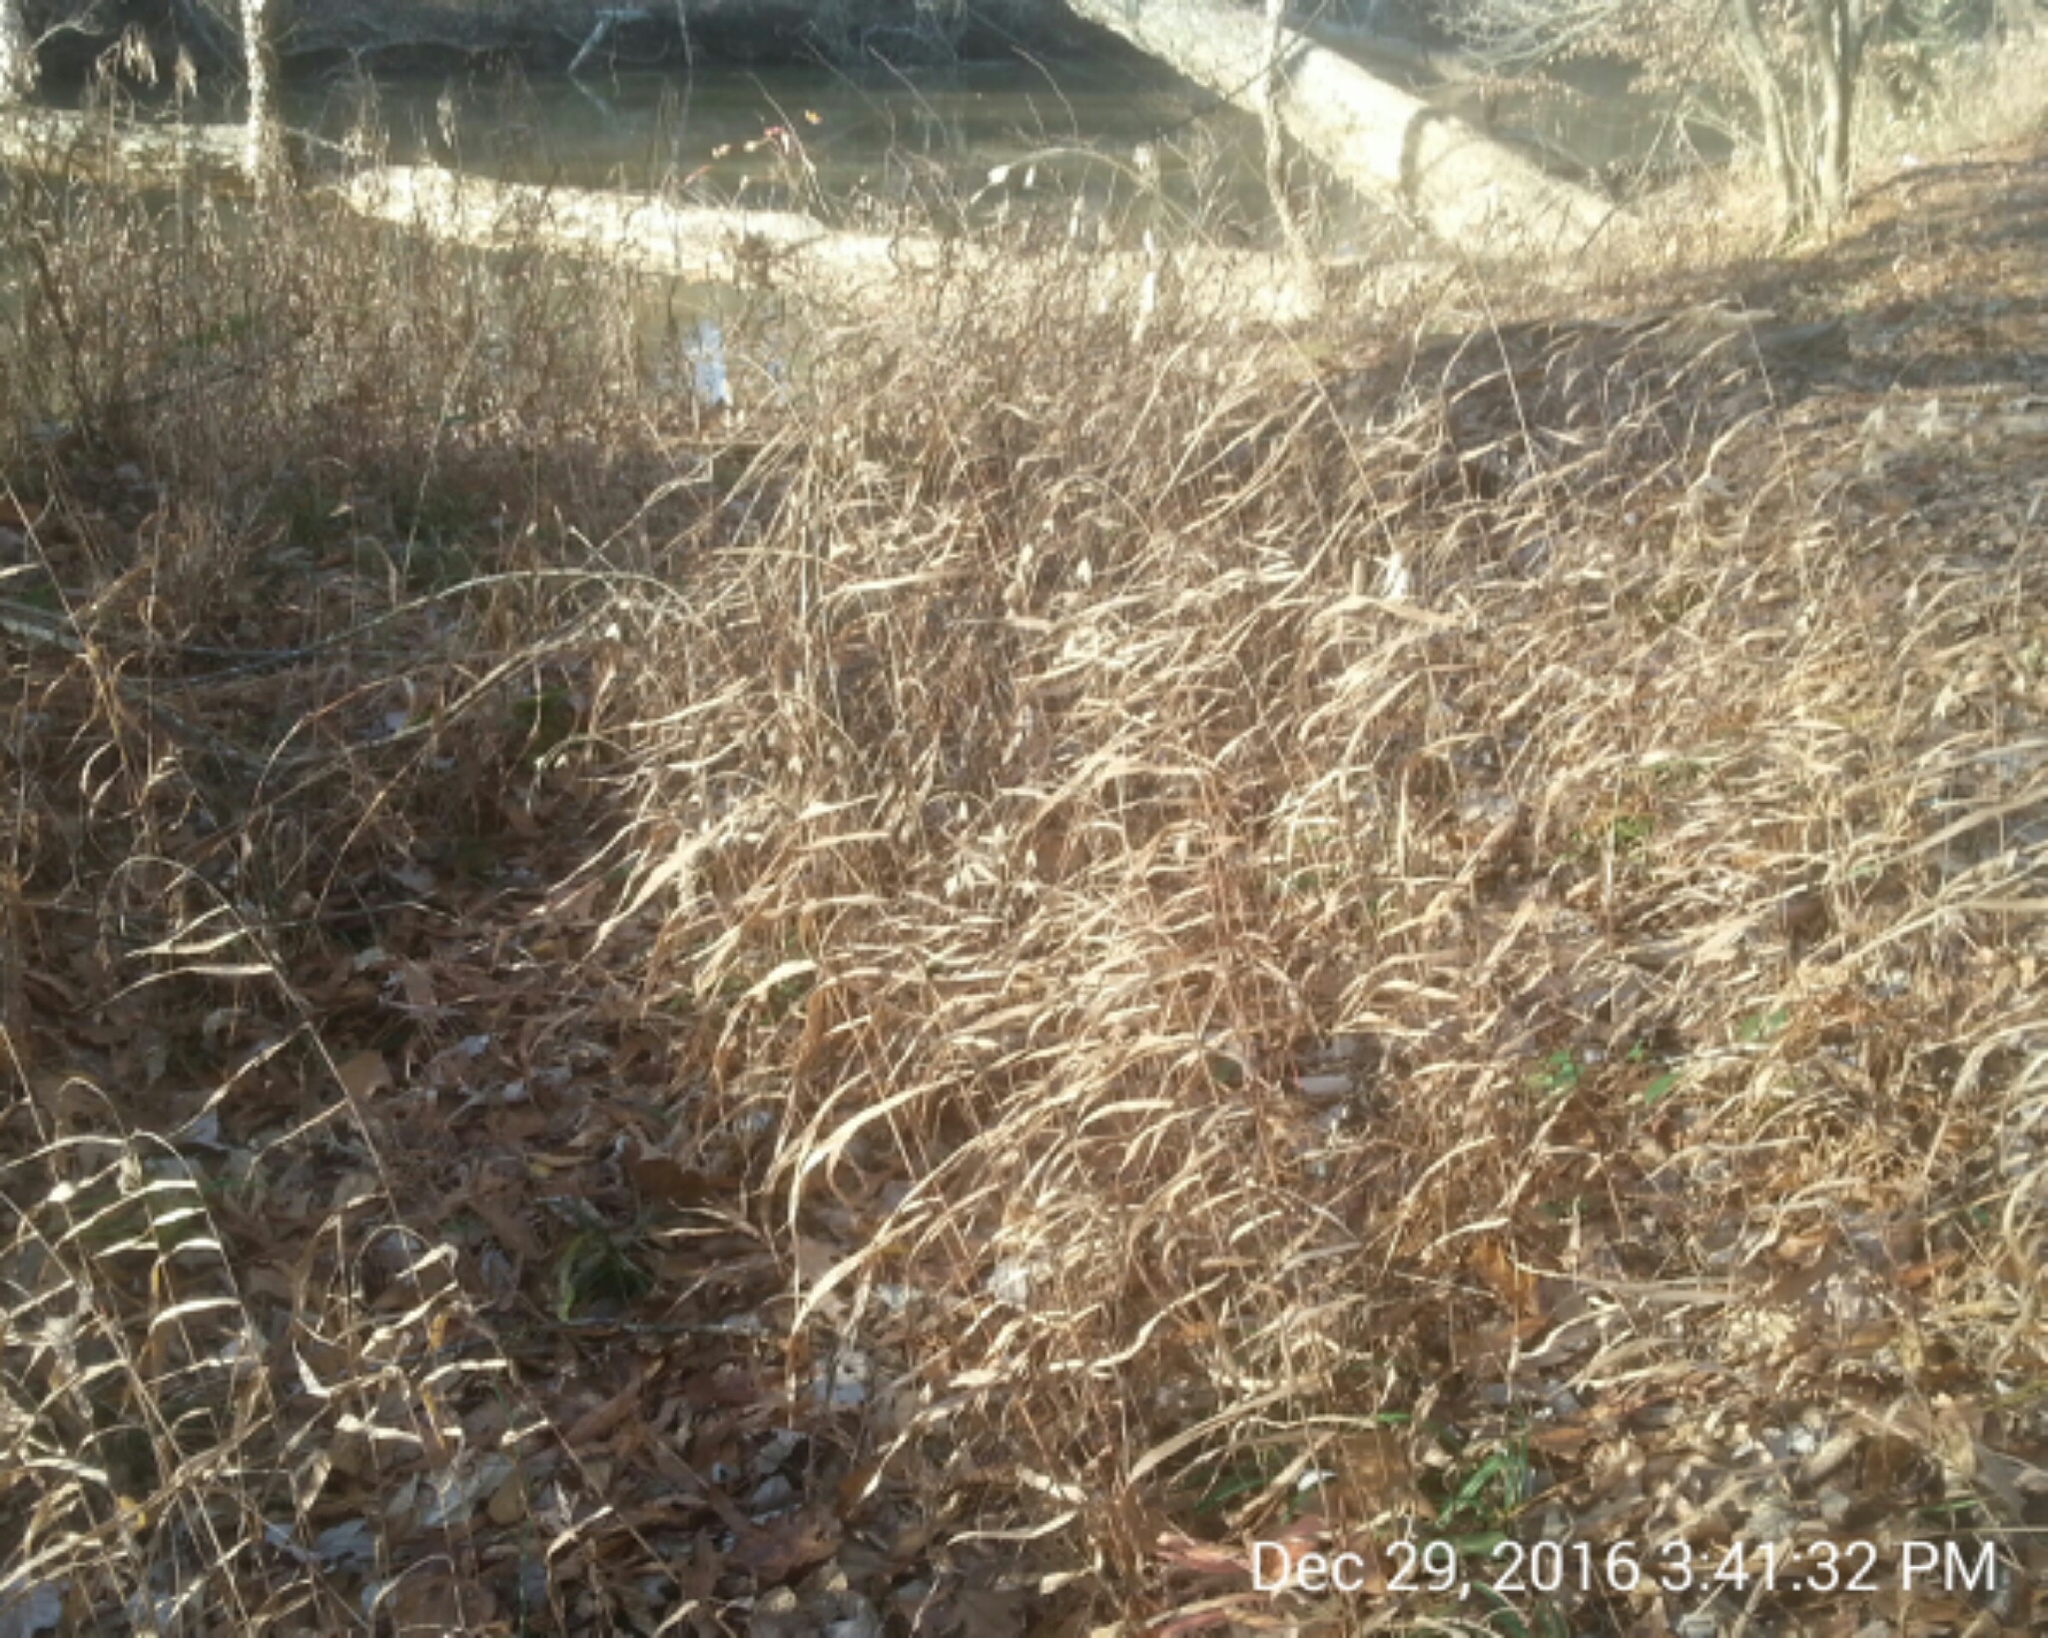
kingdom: Plantae
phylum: Tracheophyta
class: Liliopsida
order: Poales
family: Poaceae
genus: Chasmanthium
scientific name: Chasmanthium latifolium
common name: Broad-leaved chasmanthium
